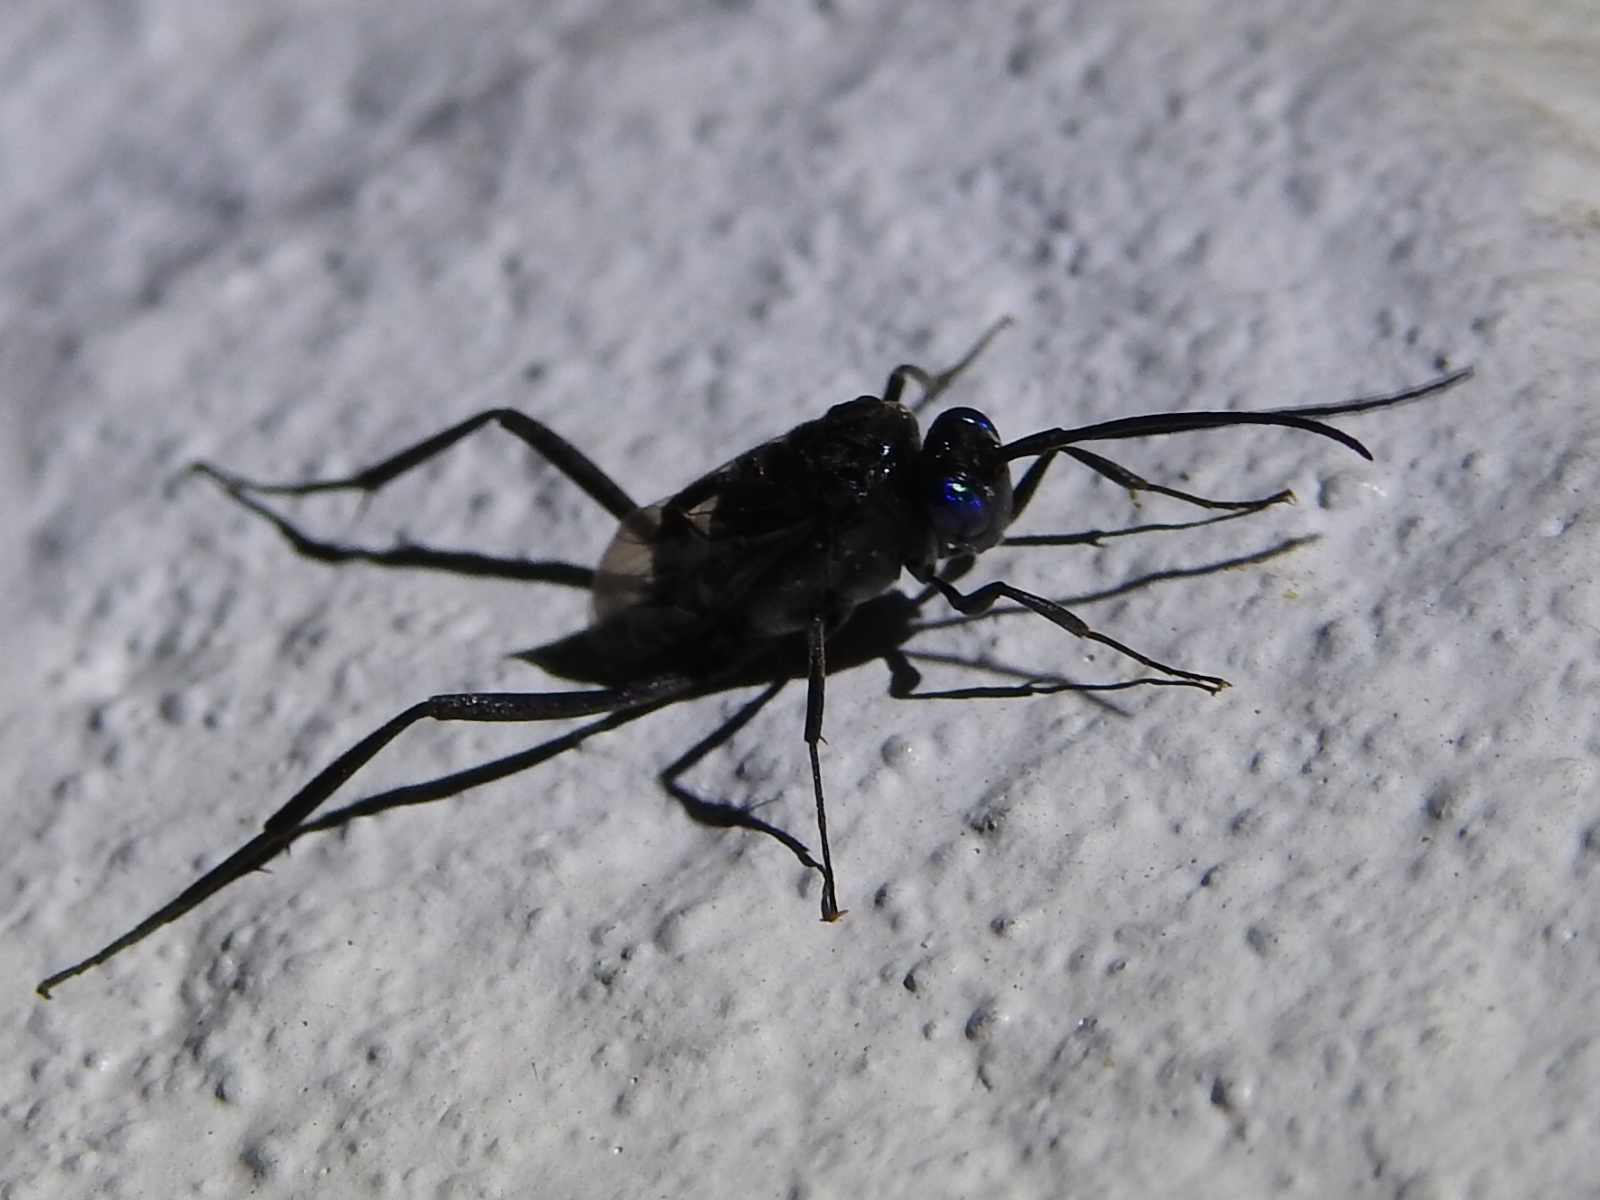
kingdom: Animalia
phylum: Arthropoda
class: Insecta
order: Hymenoptera
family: Evaniidae
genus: Evania
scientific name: Evania appendigaster
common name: Ensign wasp
